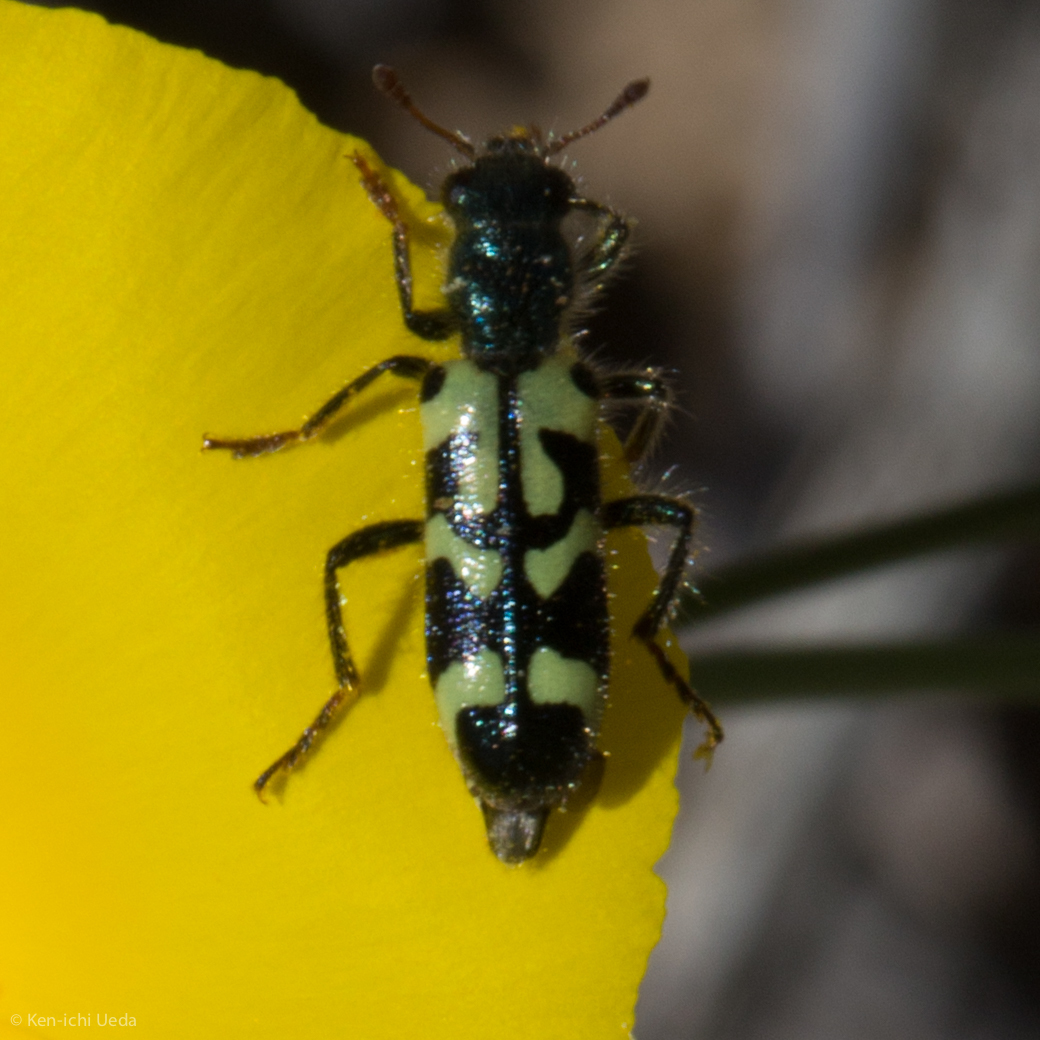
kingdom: Animalia
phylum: Arthropoda
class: Insecta
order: Coleoptera
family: Cleridae
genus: Trichodes
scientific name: Trichodes ornatus
